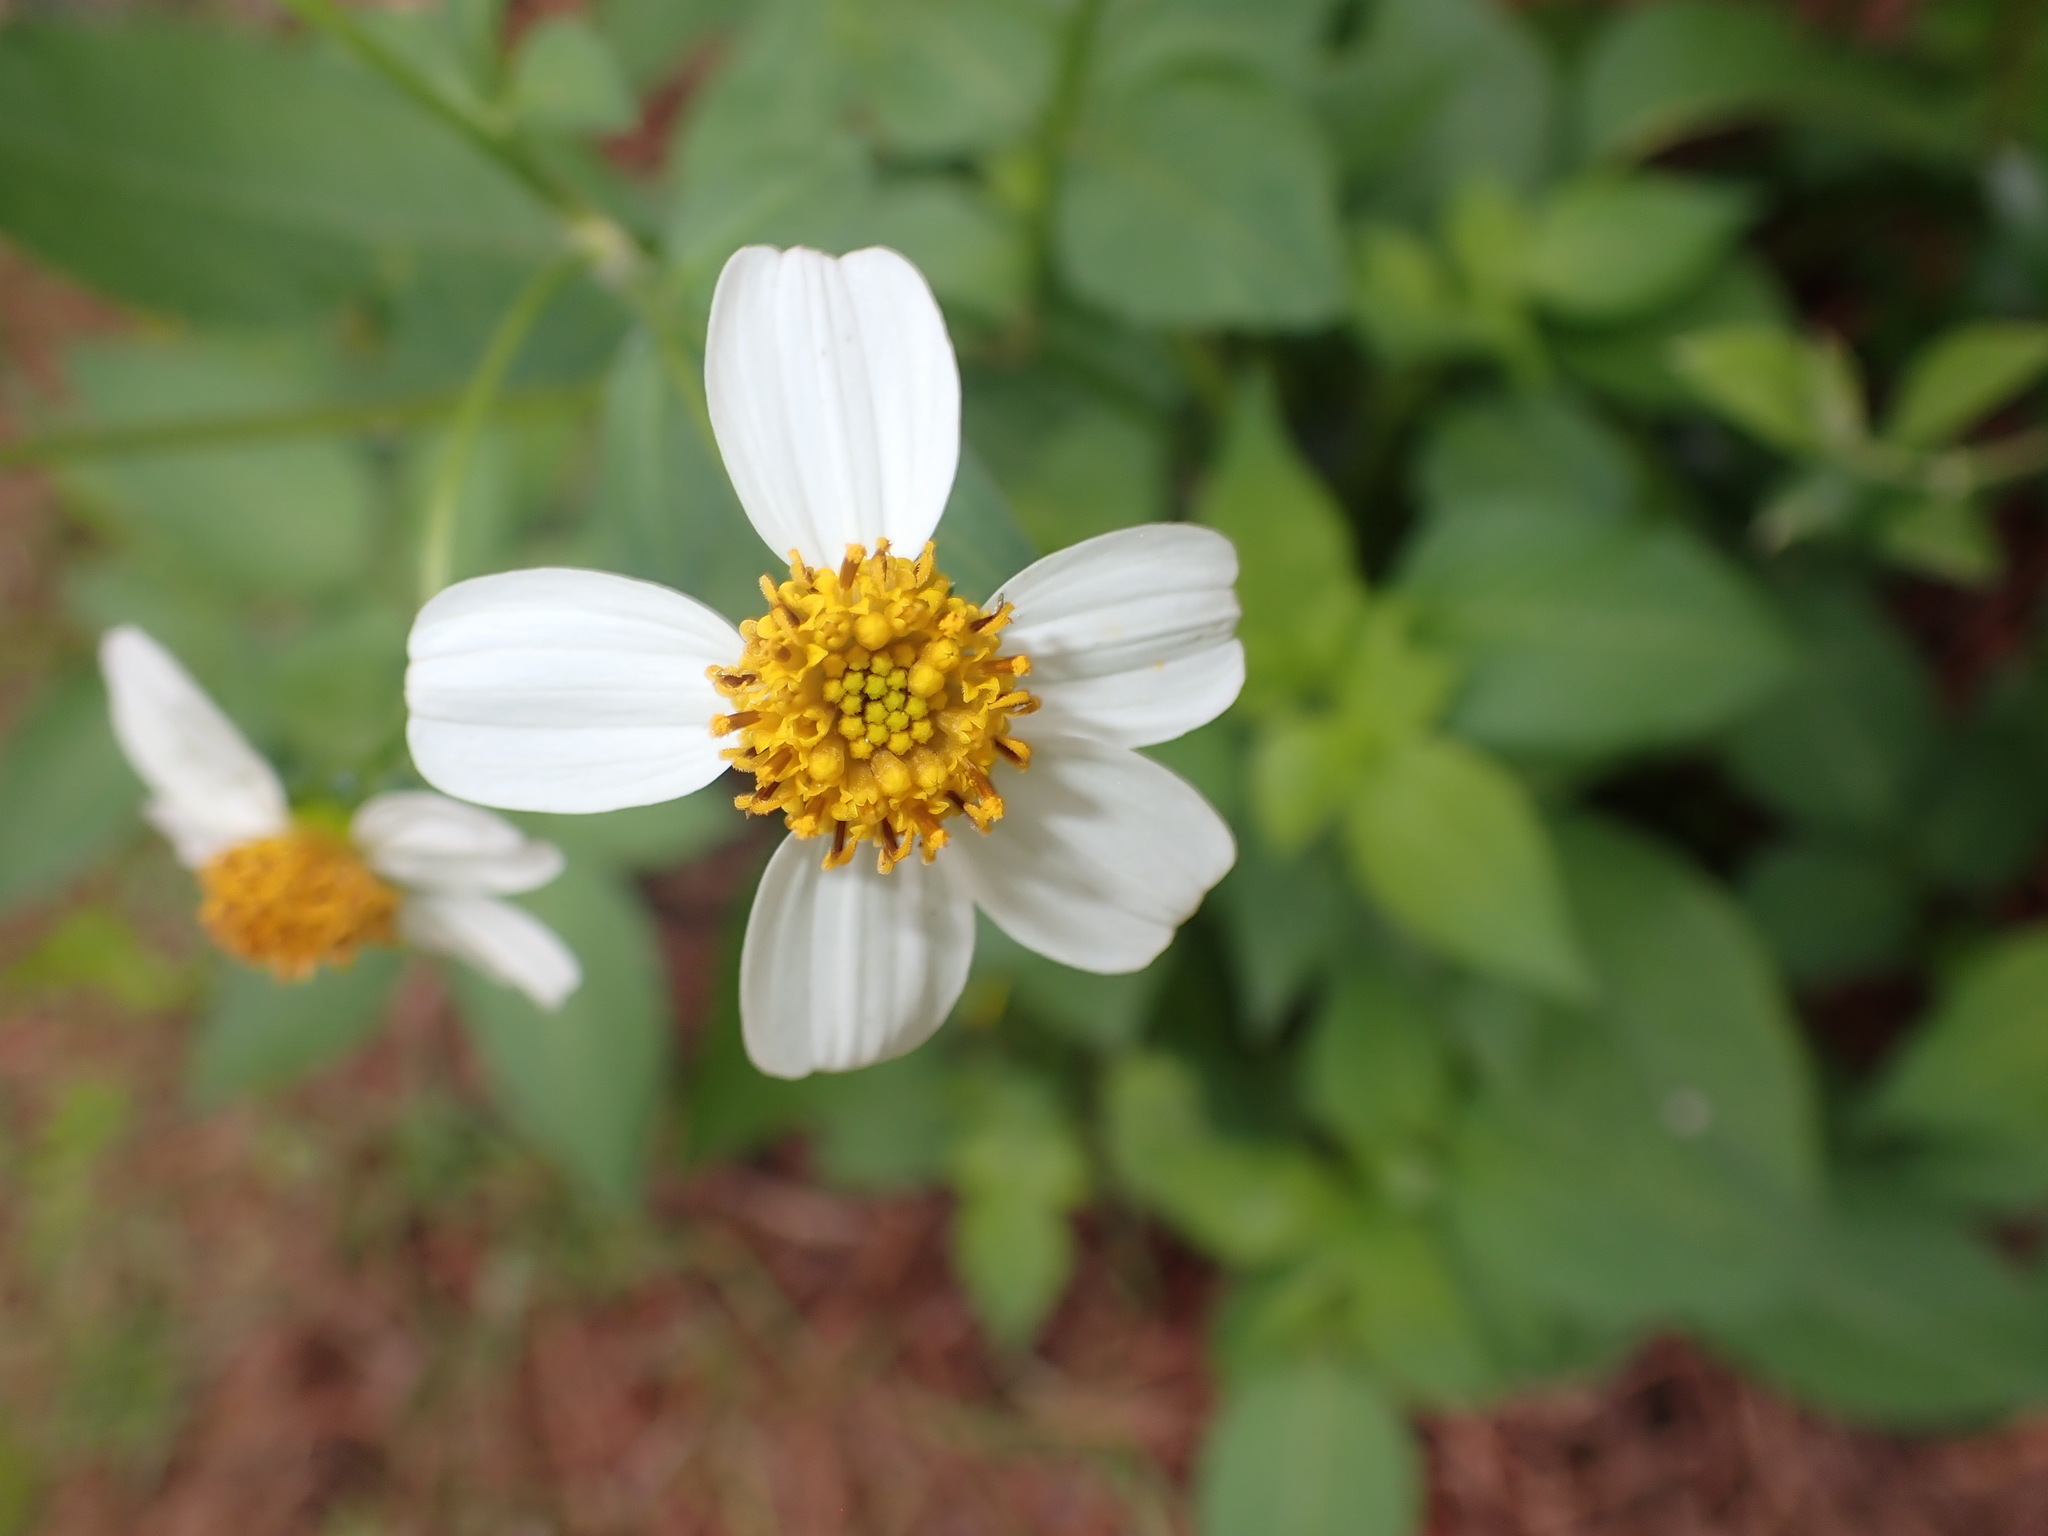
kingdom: Plantae
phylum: Tracheophyta
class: Magnoliopsida
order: Asterales
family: Asteraceae
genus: Bidens
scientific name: Bidens alba
